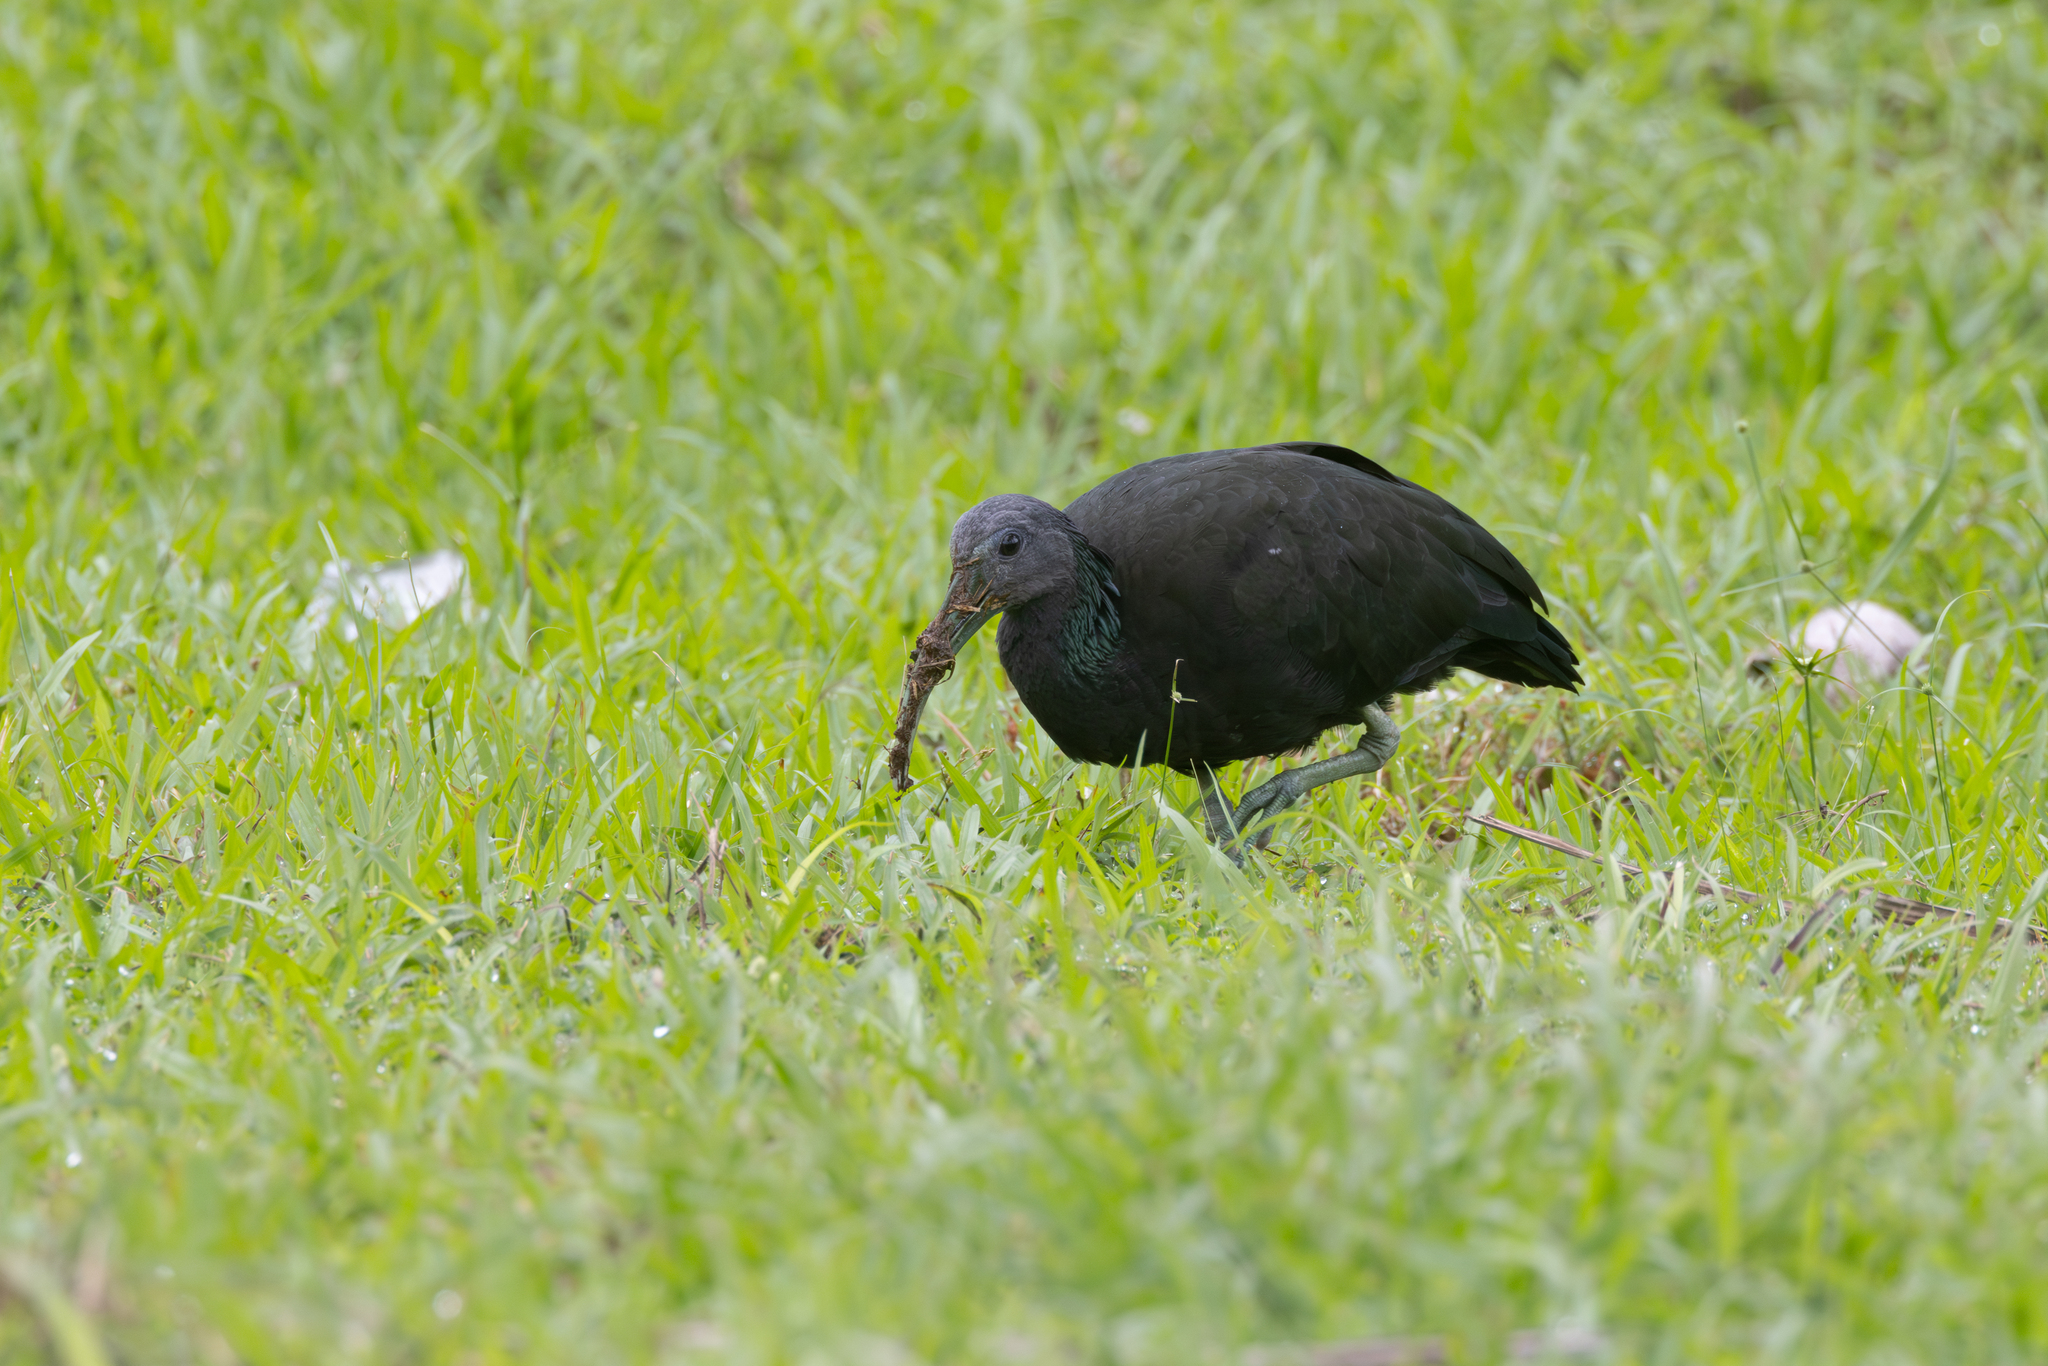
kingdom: Animalia
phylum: Chordata
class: Aves
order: Pelecaniformes
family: Threskiornithidae
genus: Mesembrinibis
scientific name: Mesembrinibis cayennensis
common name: Green ibis
